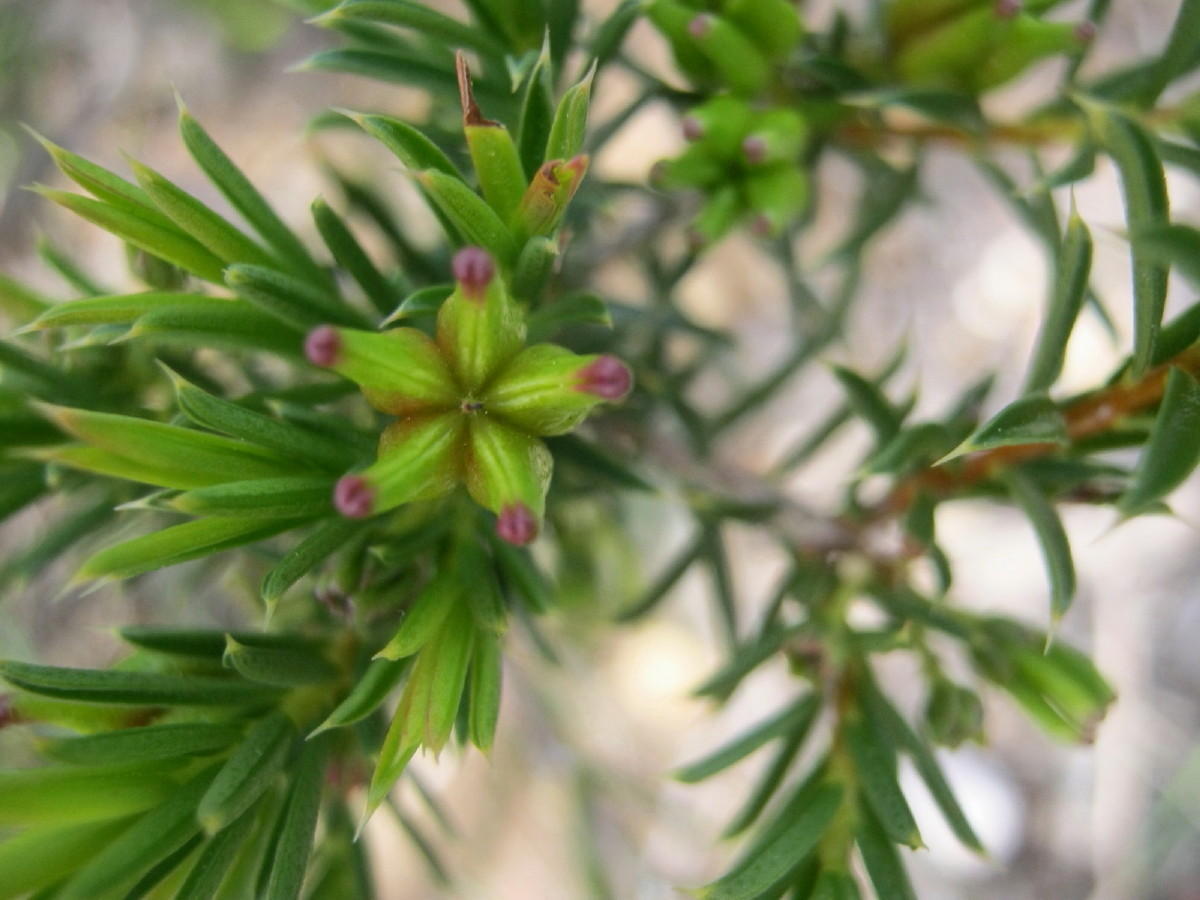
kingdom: Plantae
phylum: Tracheophyta
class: Magnoliopsida
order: Sapindales
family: Rutaceae
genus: Diosma
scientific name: Diosma aristata
